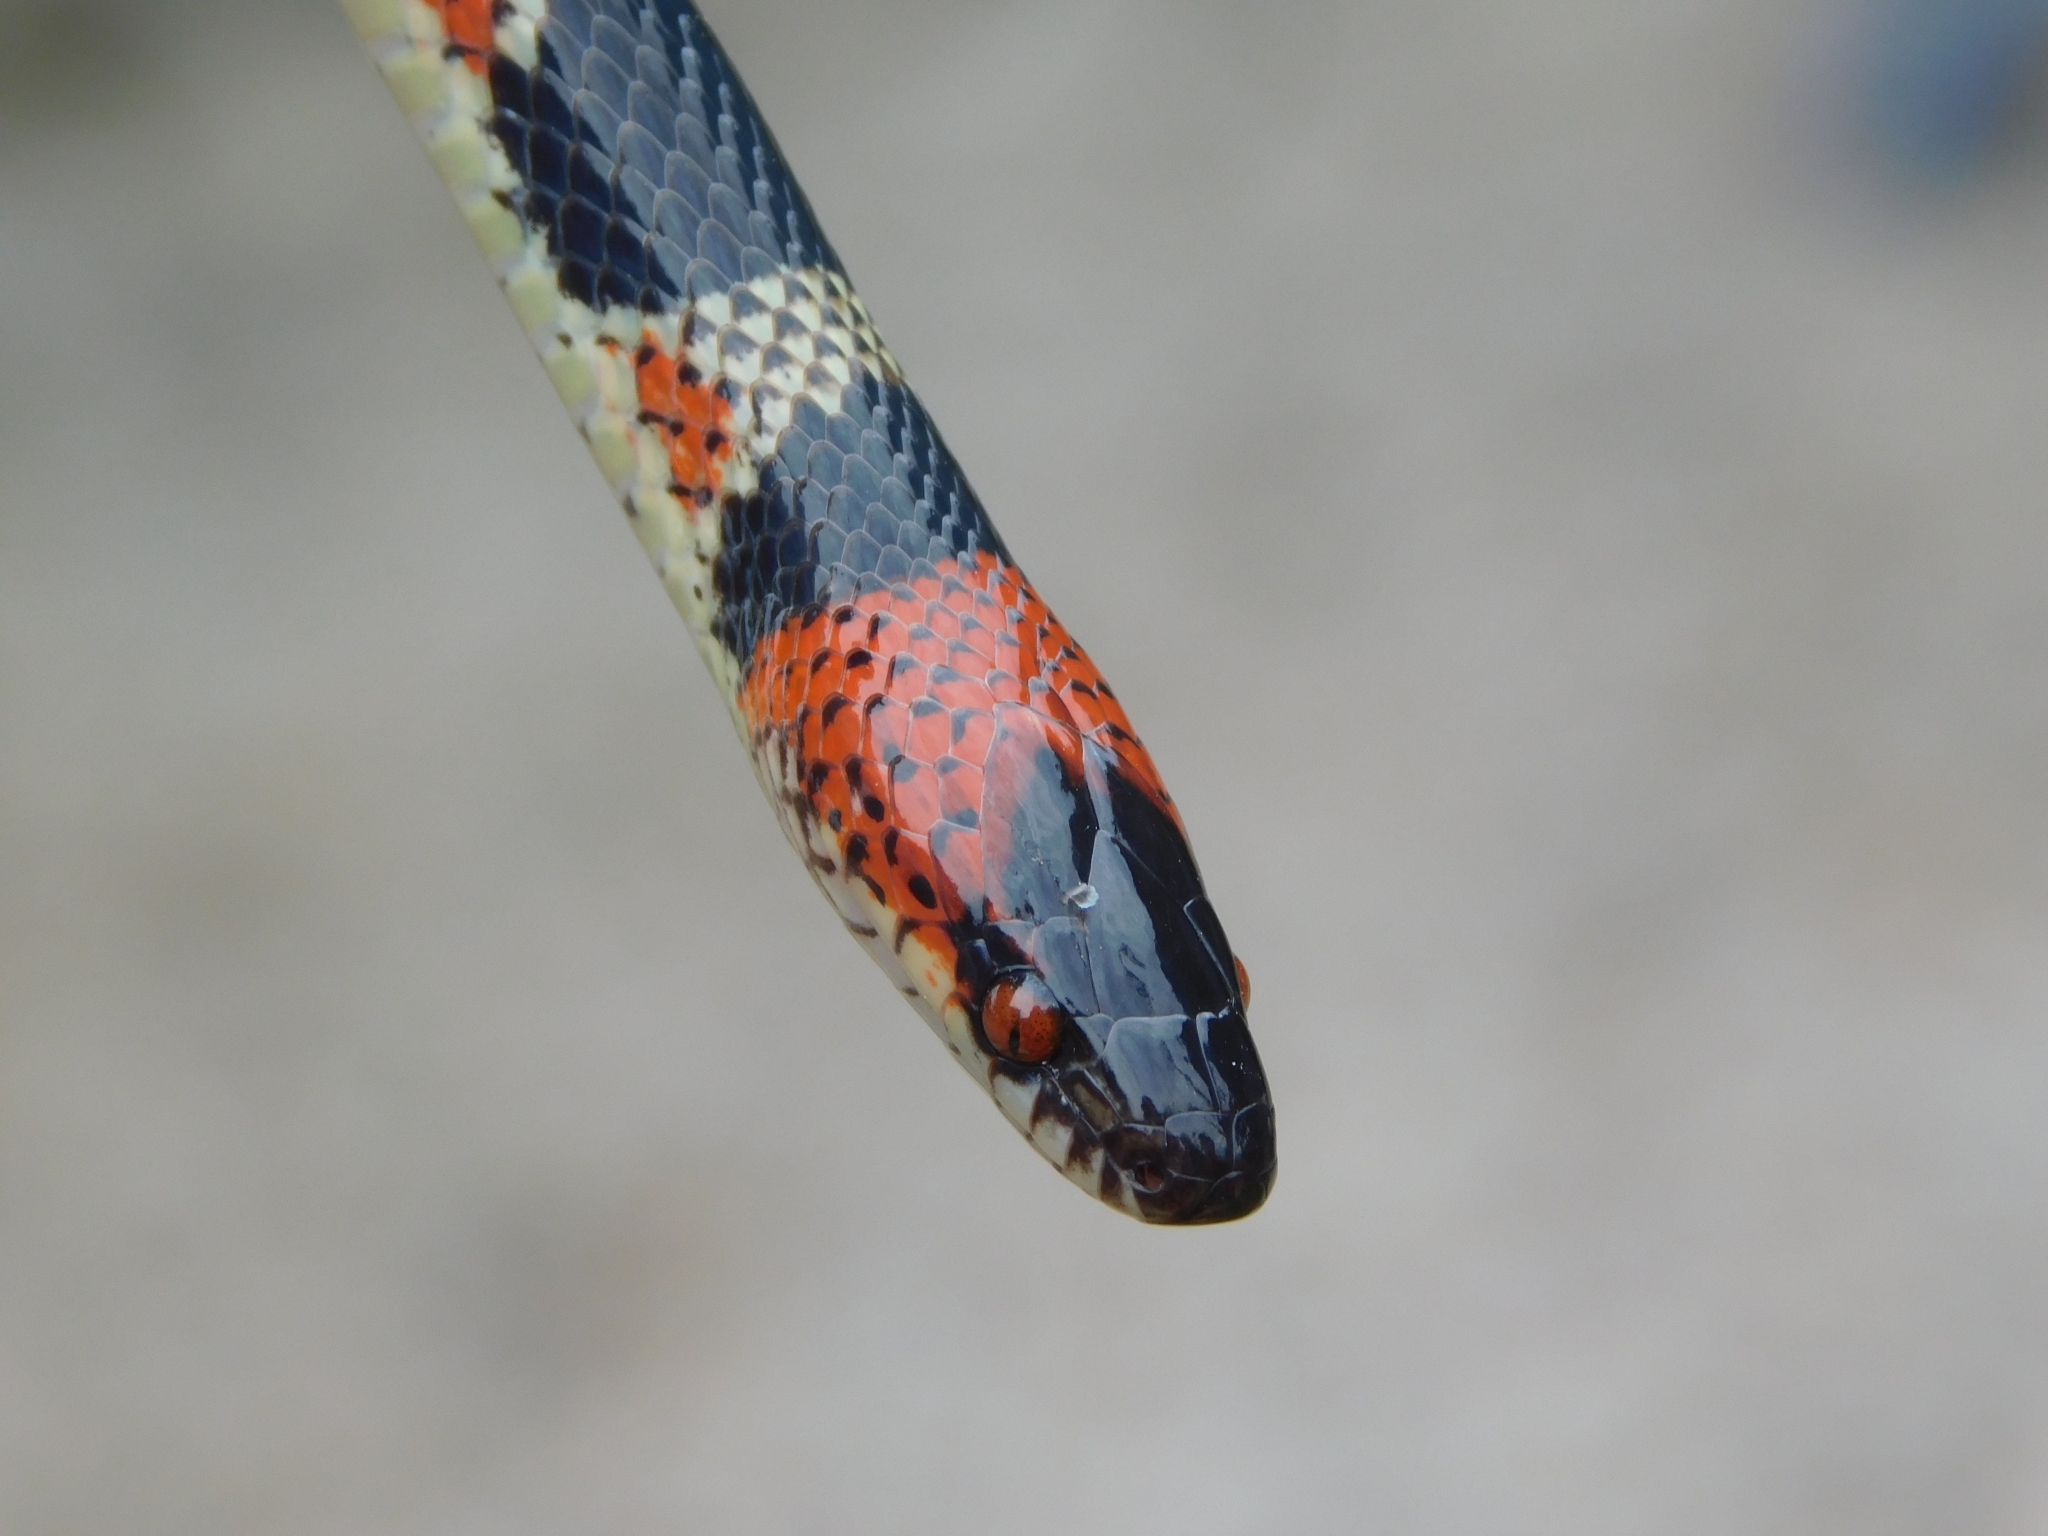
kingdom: Animalia
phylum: Chordata
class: Squamata
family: Colubridae
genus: Oxyrhopus
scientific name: Oxyrhopus rhombifer
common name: Amazon false coral snake
